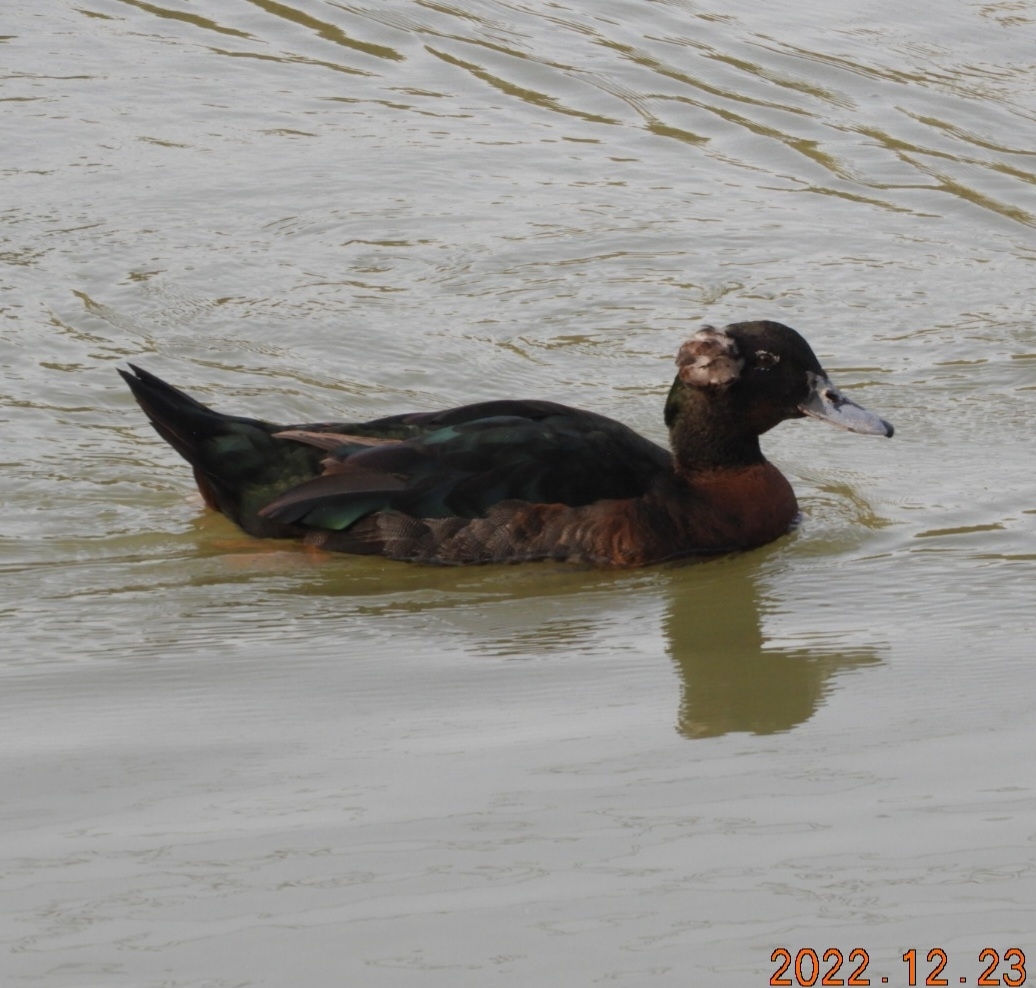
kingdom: Animalia
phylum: Chordata
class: Aves
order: Anseriformes
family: Anatidae
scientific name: Anatidae
